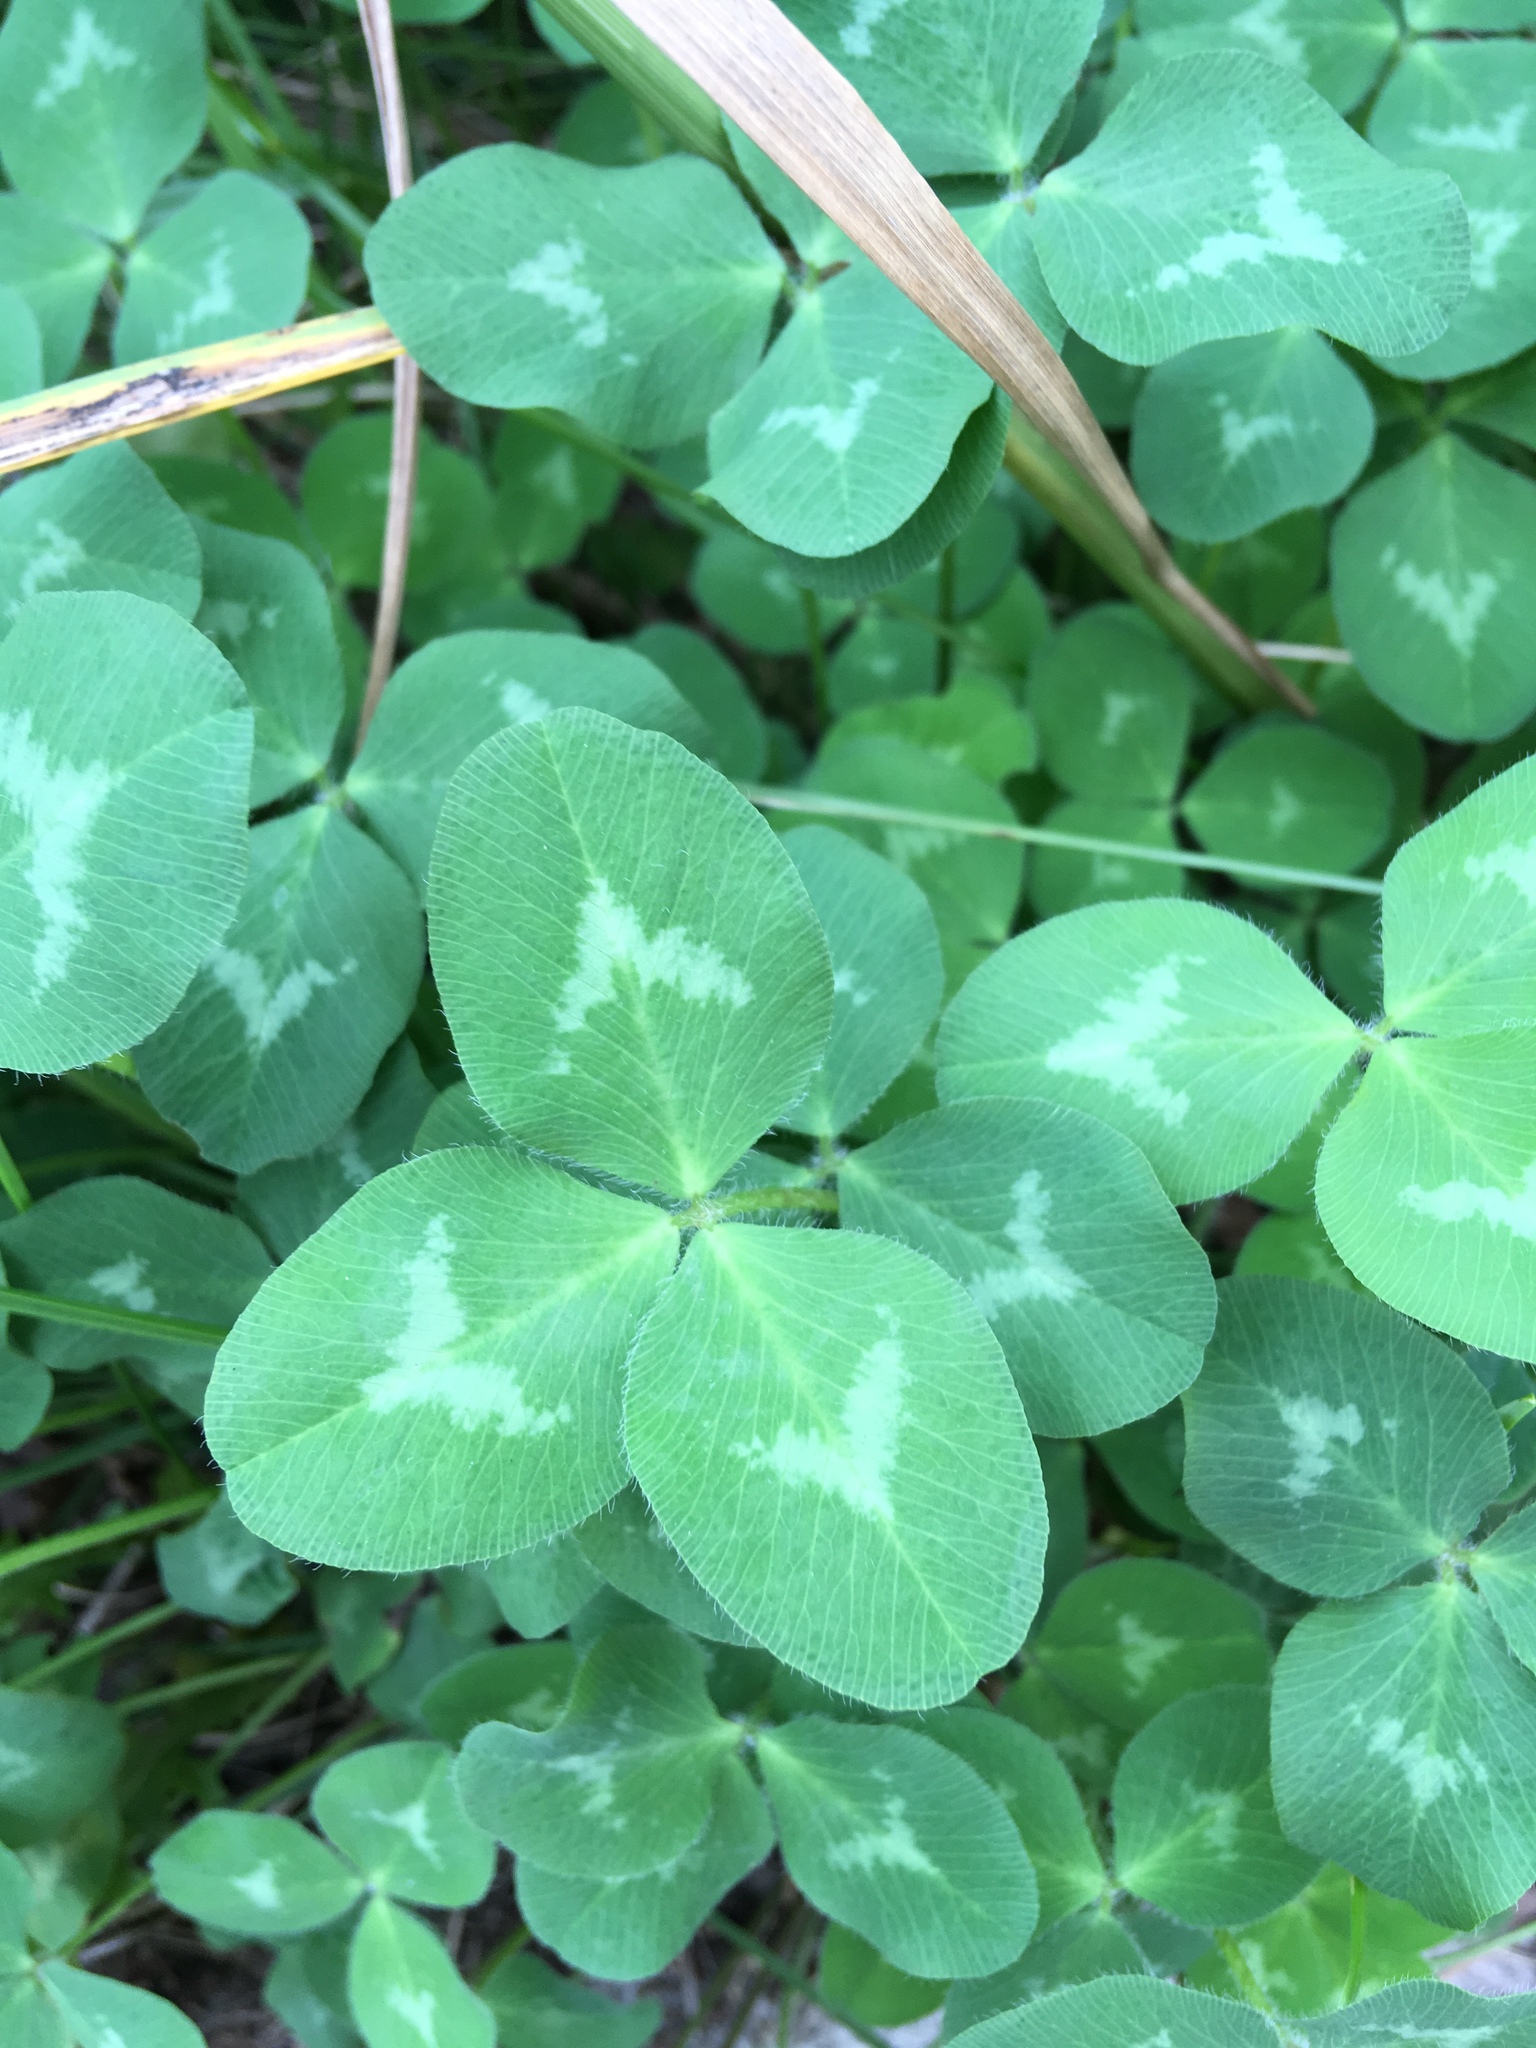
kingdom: Plantae
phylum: Tracheophyta
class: Magnoliopsida
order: Fabales
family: Fabaceae
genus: Trifolium
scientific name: Trifolium pratense
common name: Red clover
